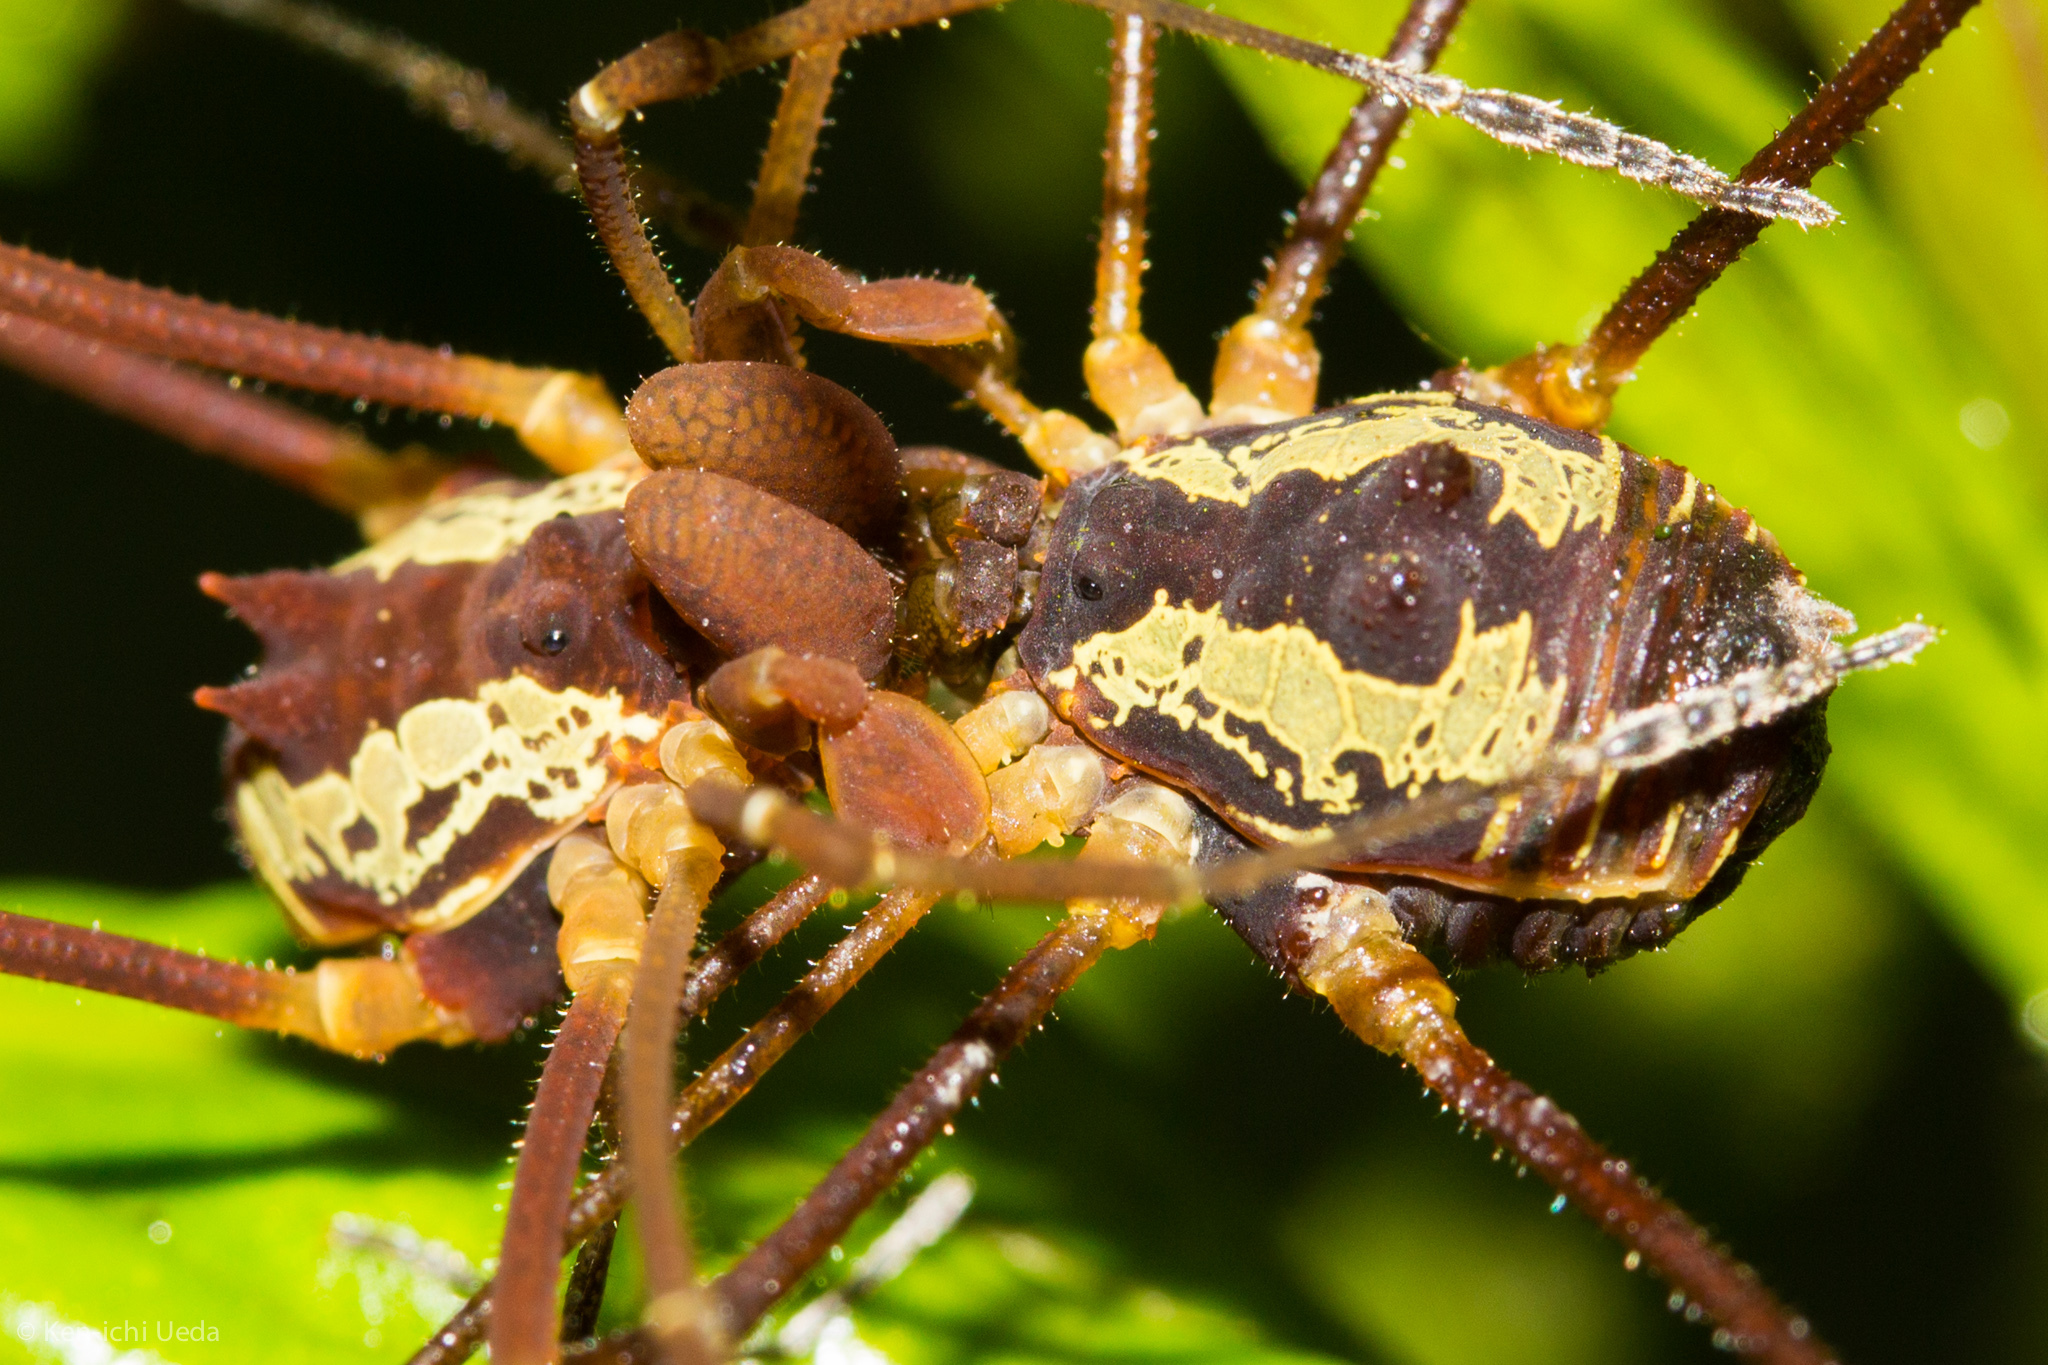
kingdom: Animalia
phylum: Arthropoda
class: Arachnida
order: Opiliones
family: Cosmetidae
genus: Meterginus
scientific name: Meterginus togatus
